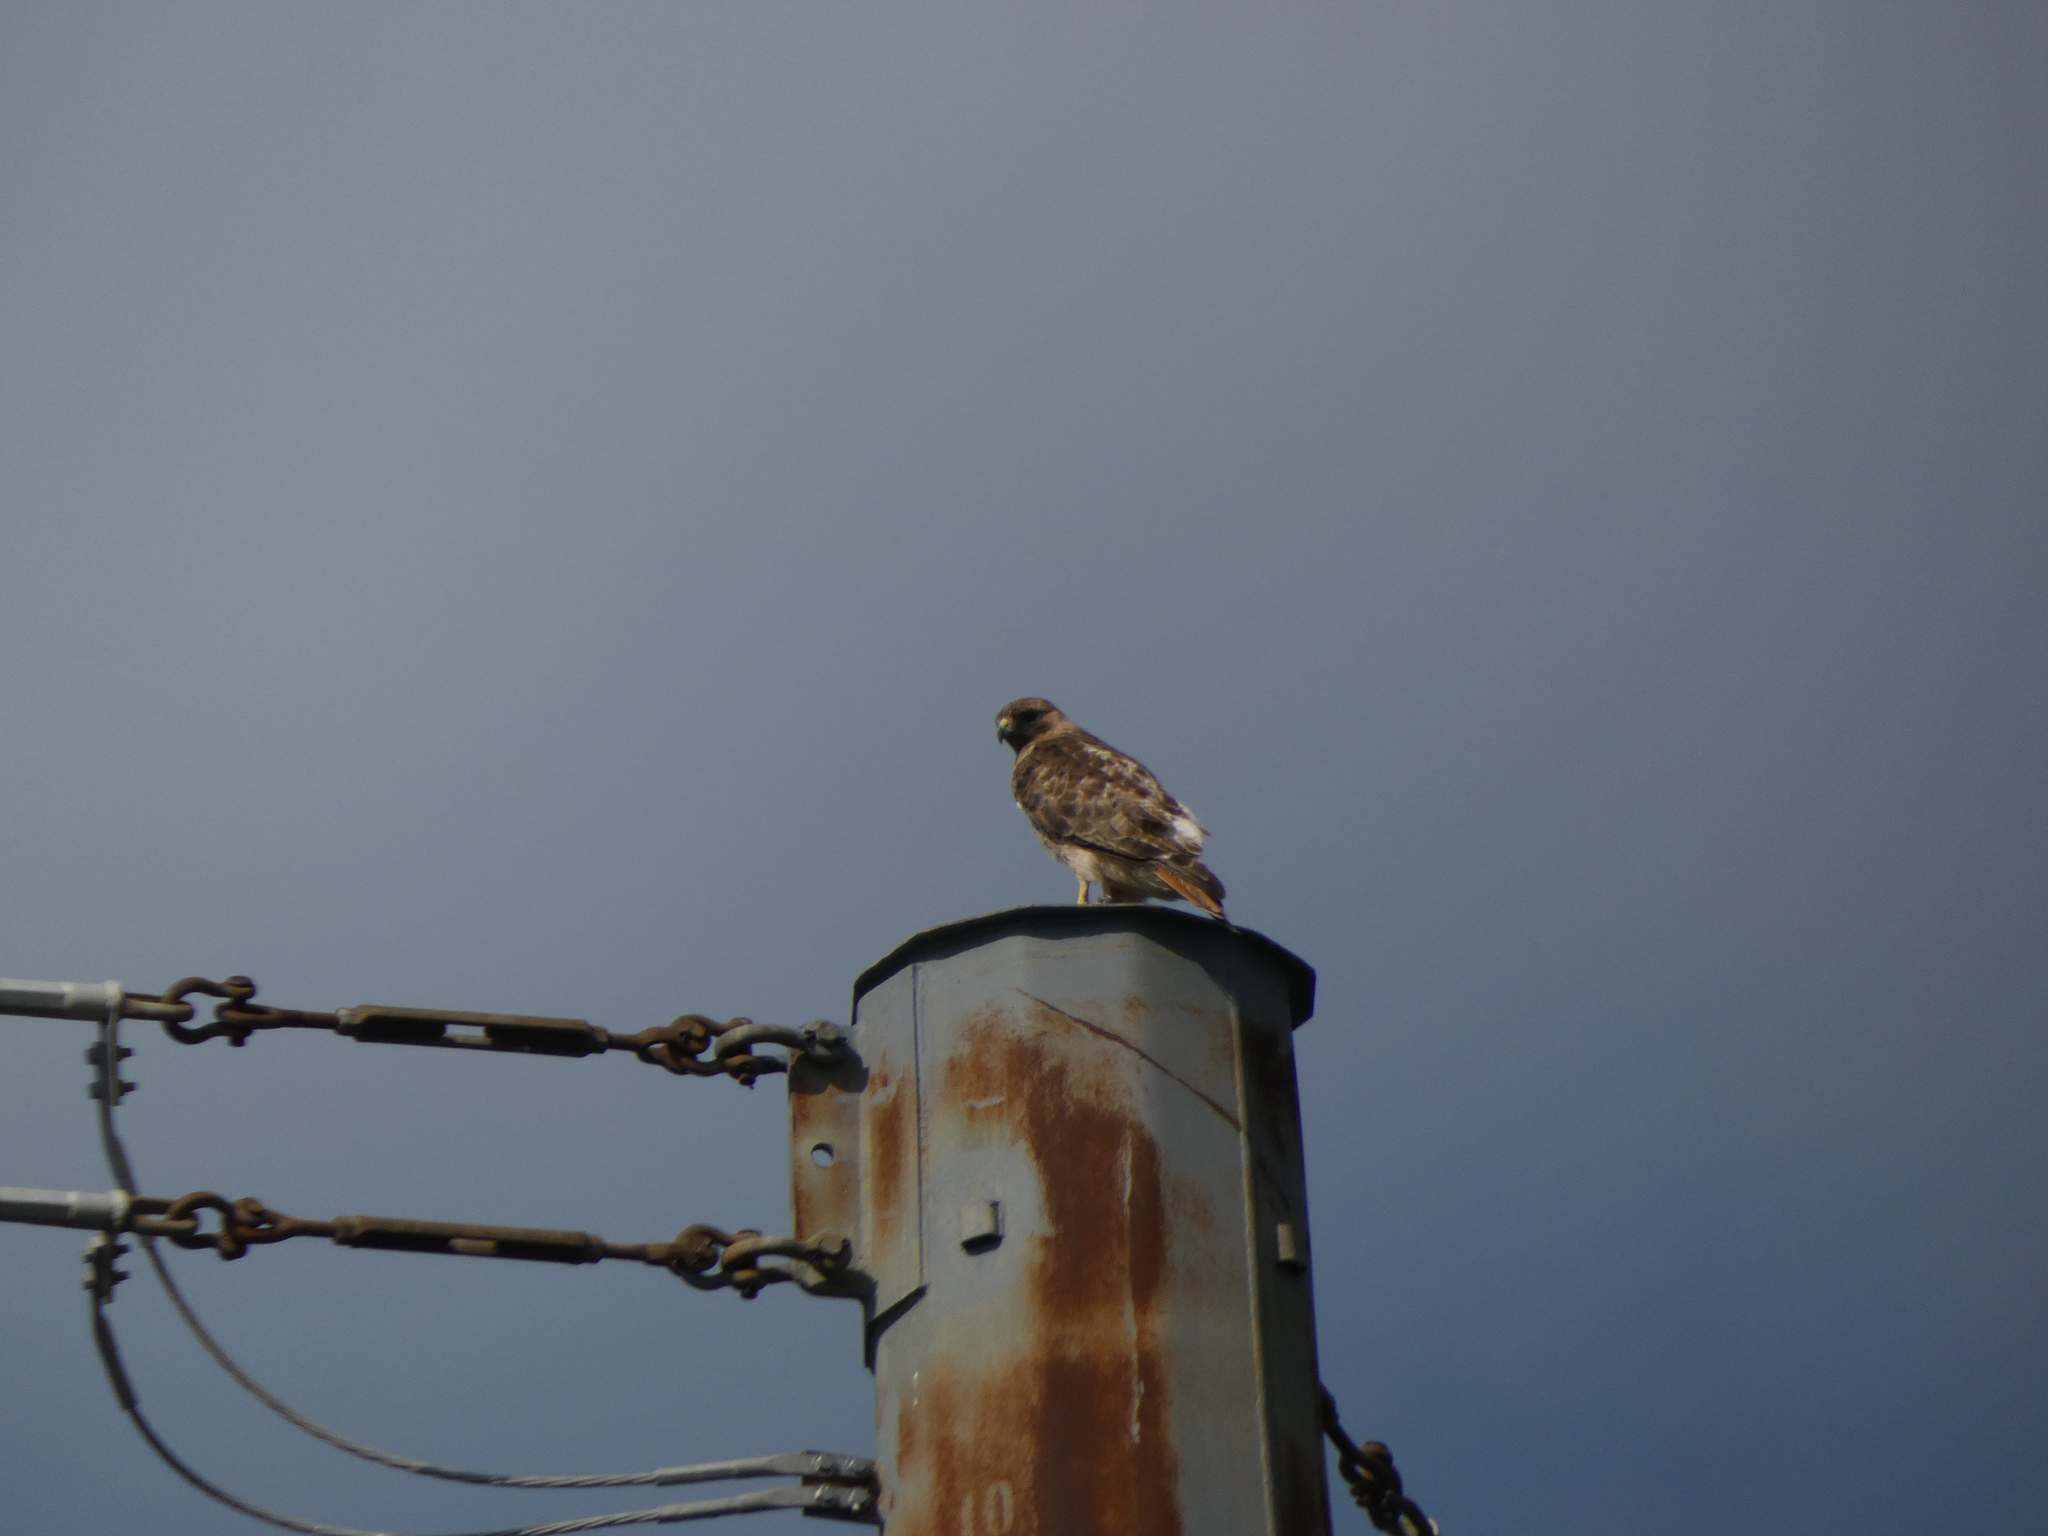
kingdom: Animalia
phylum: Chordata
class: Aves
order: Accipitriformes
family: Accipitridae
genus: Buteo
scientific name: Buteo jamaicensis
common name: Red-tailed hawk
